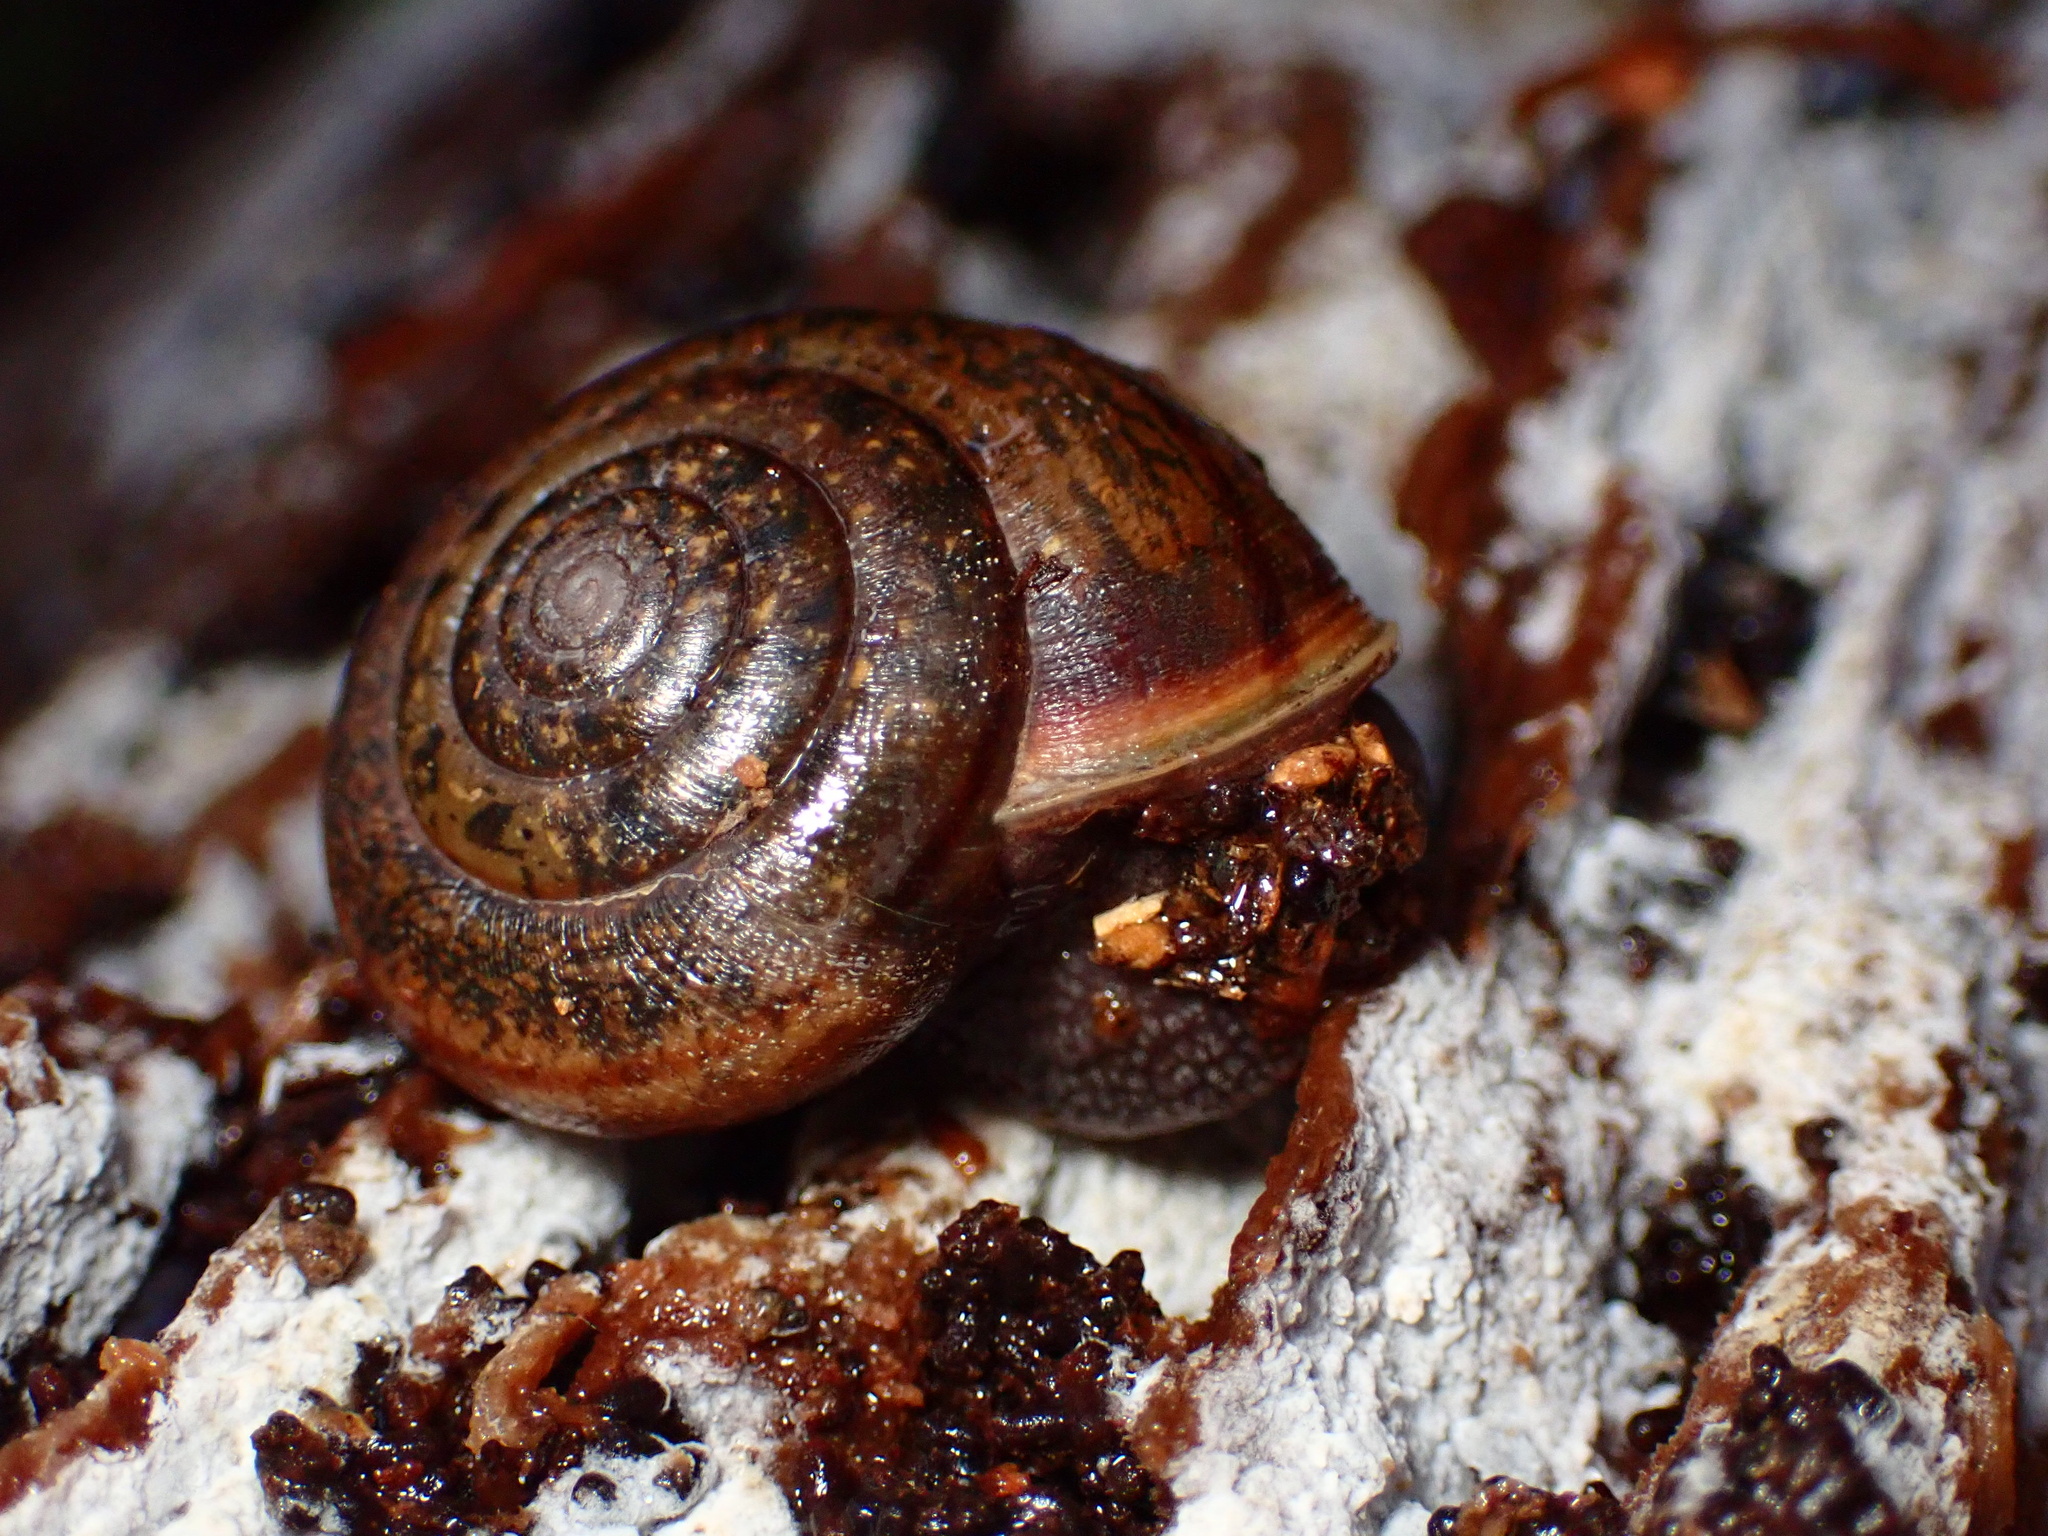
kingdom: Animalia
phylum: Mollusca
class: Gastropoda
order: Stylommatophora
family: Xanthonychidae
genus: Helminthoglypta
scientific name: Helminthoglypta diabloensis
